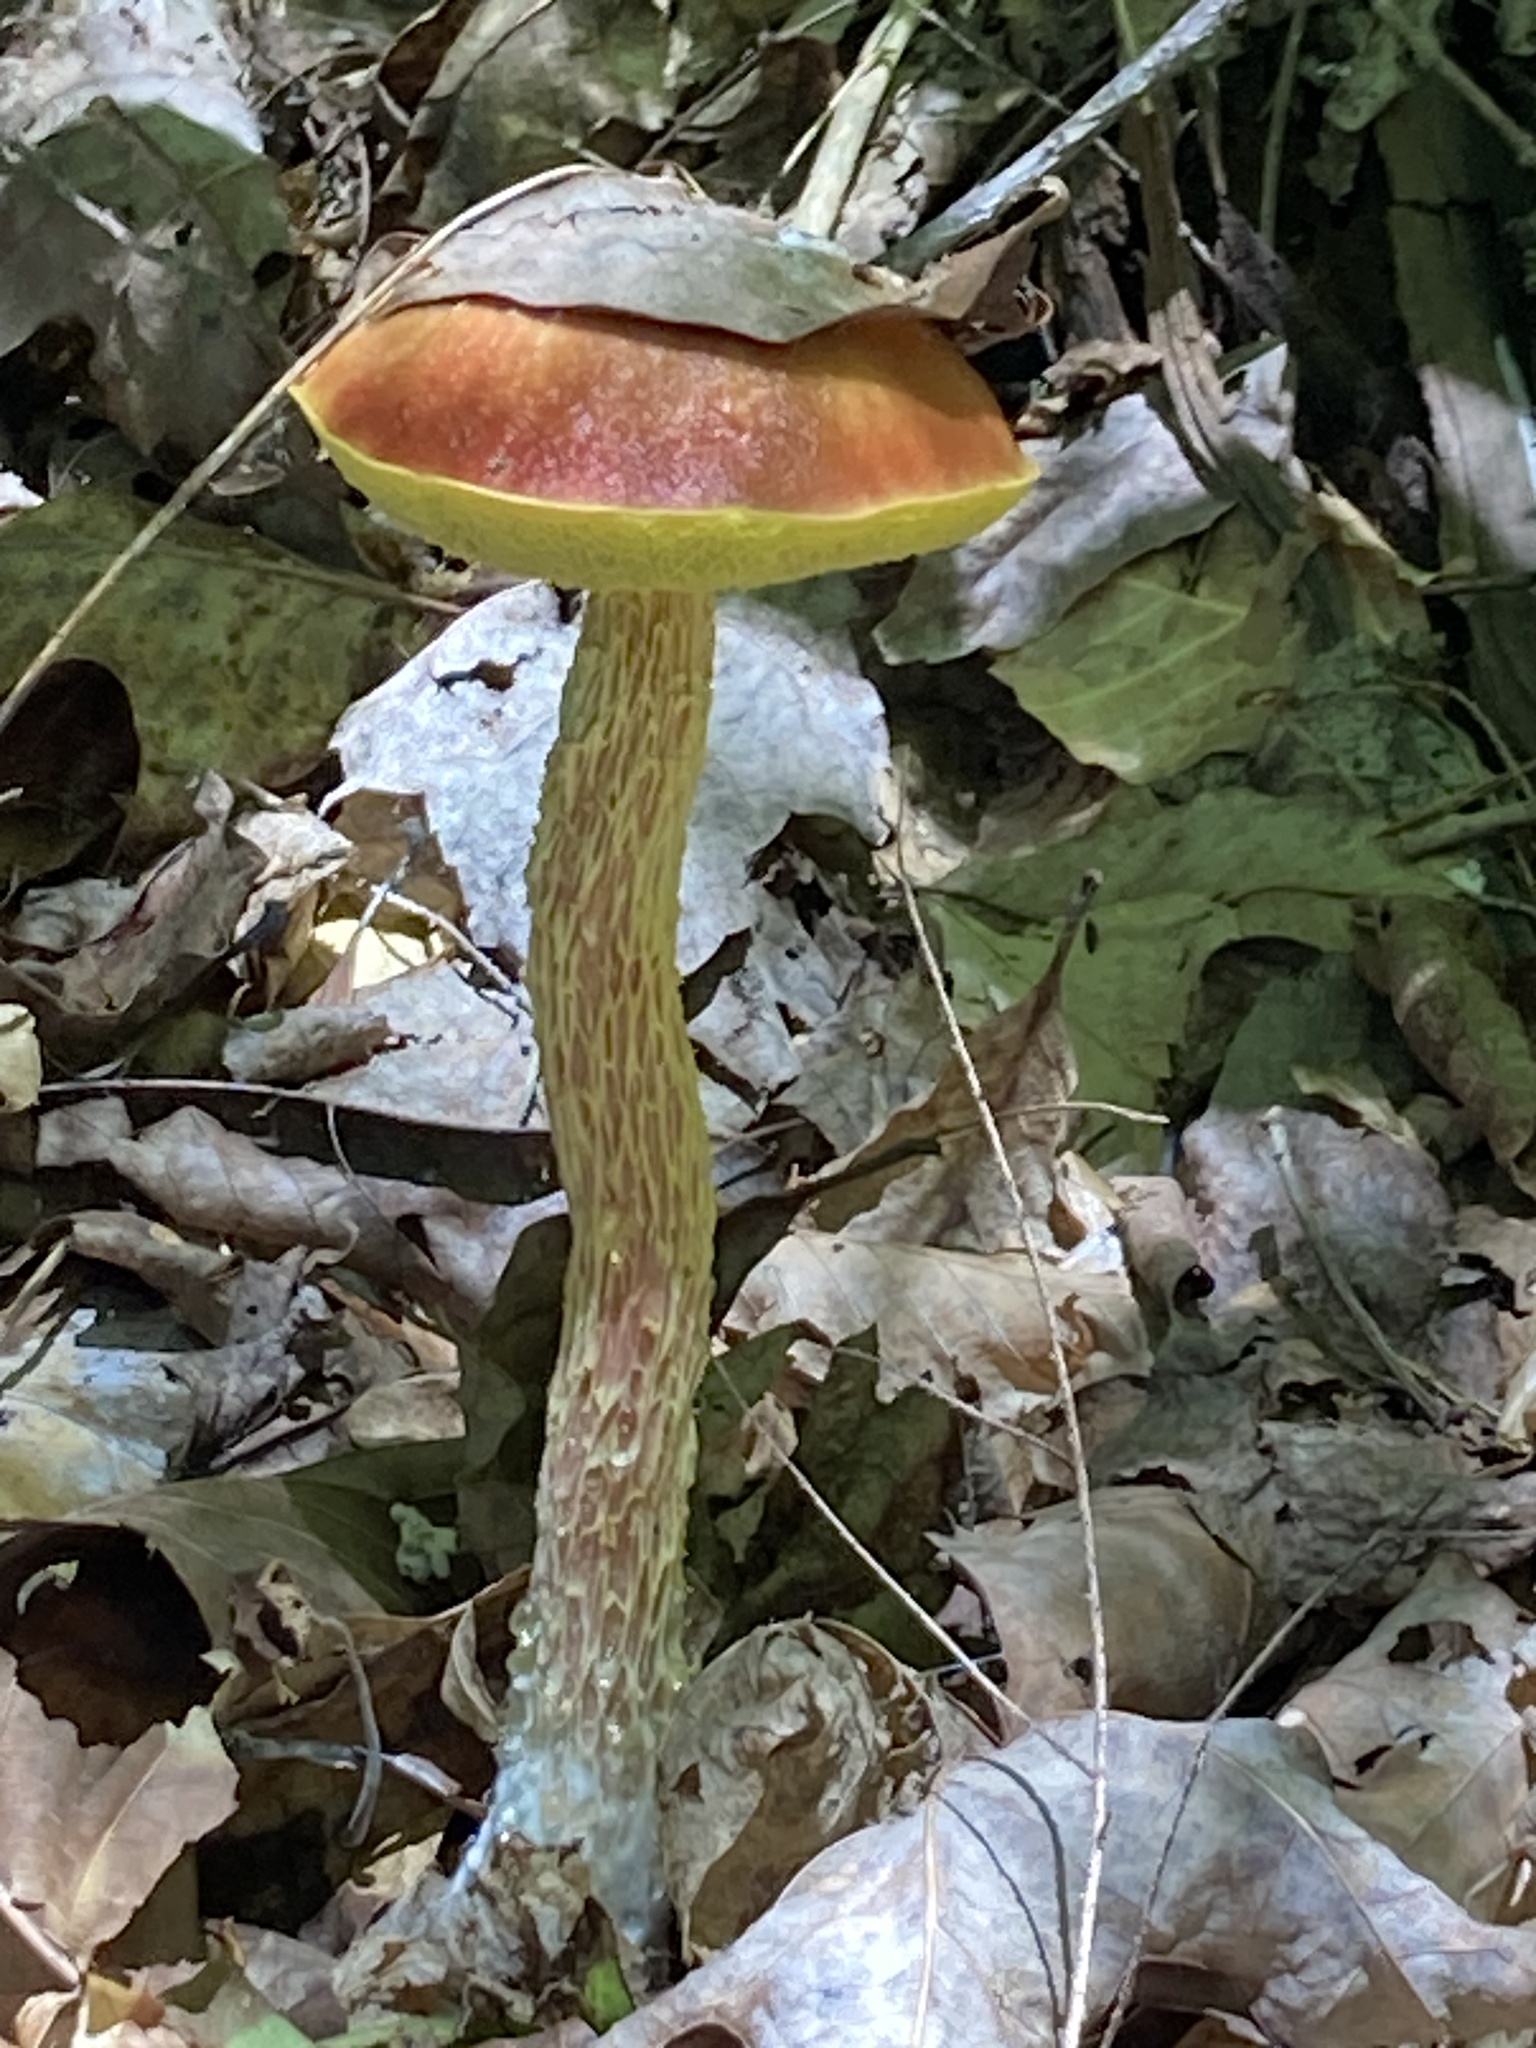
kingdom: Fungi
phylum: Basidiomycota
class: Agaricomycetes
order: Boletales
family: Boletaceae
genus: Aureoboletus
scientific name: Aureoboletus betula
